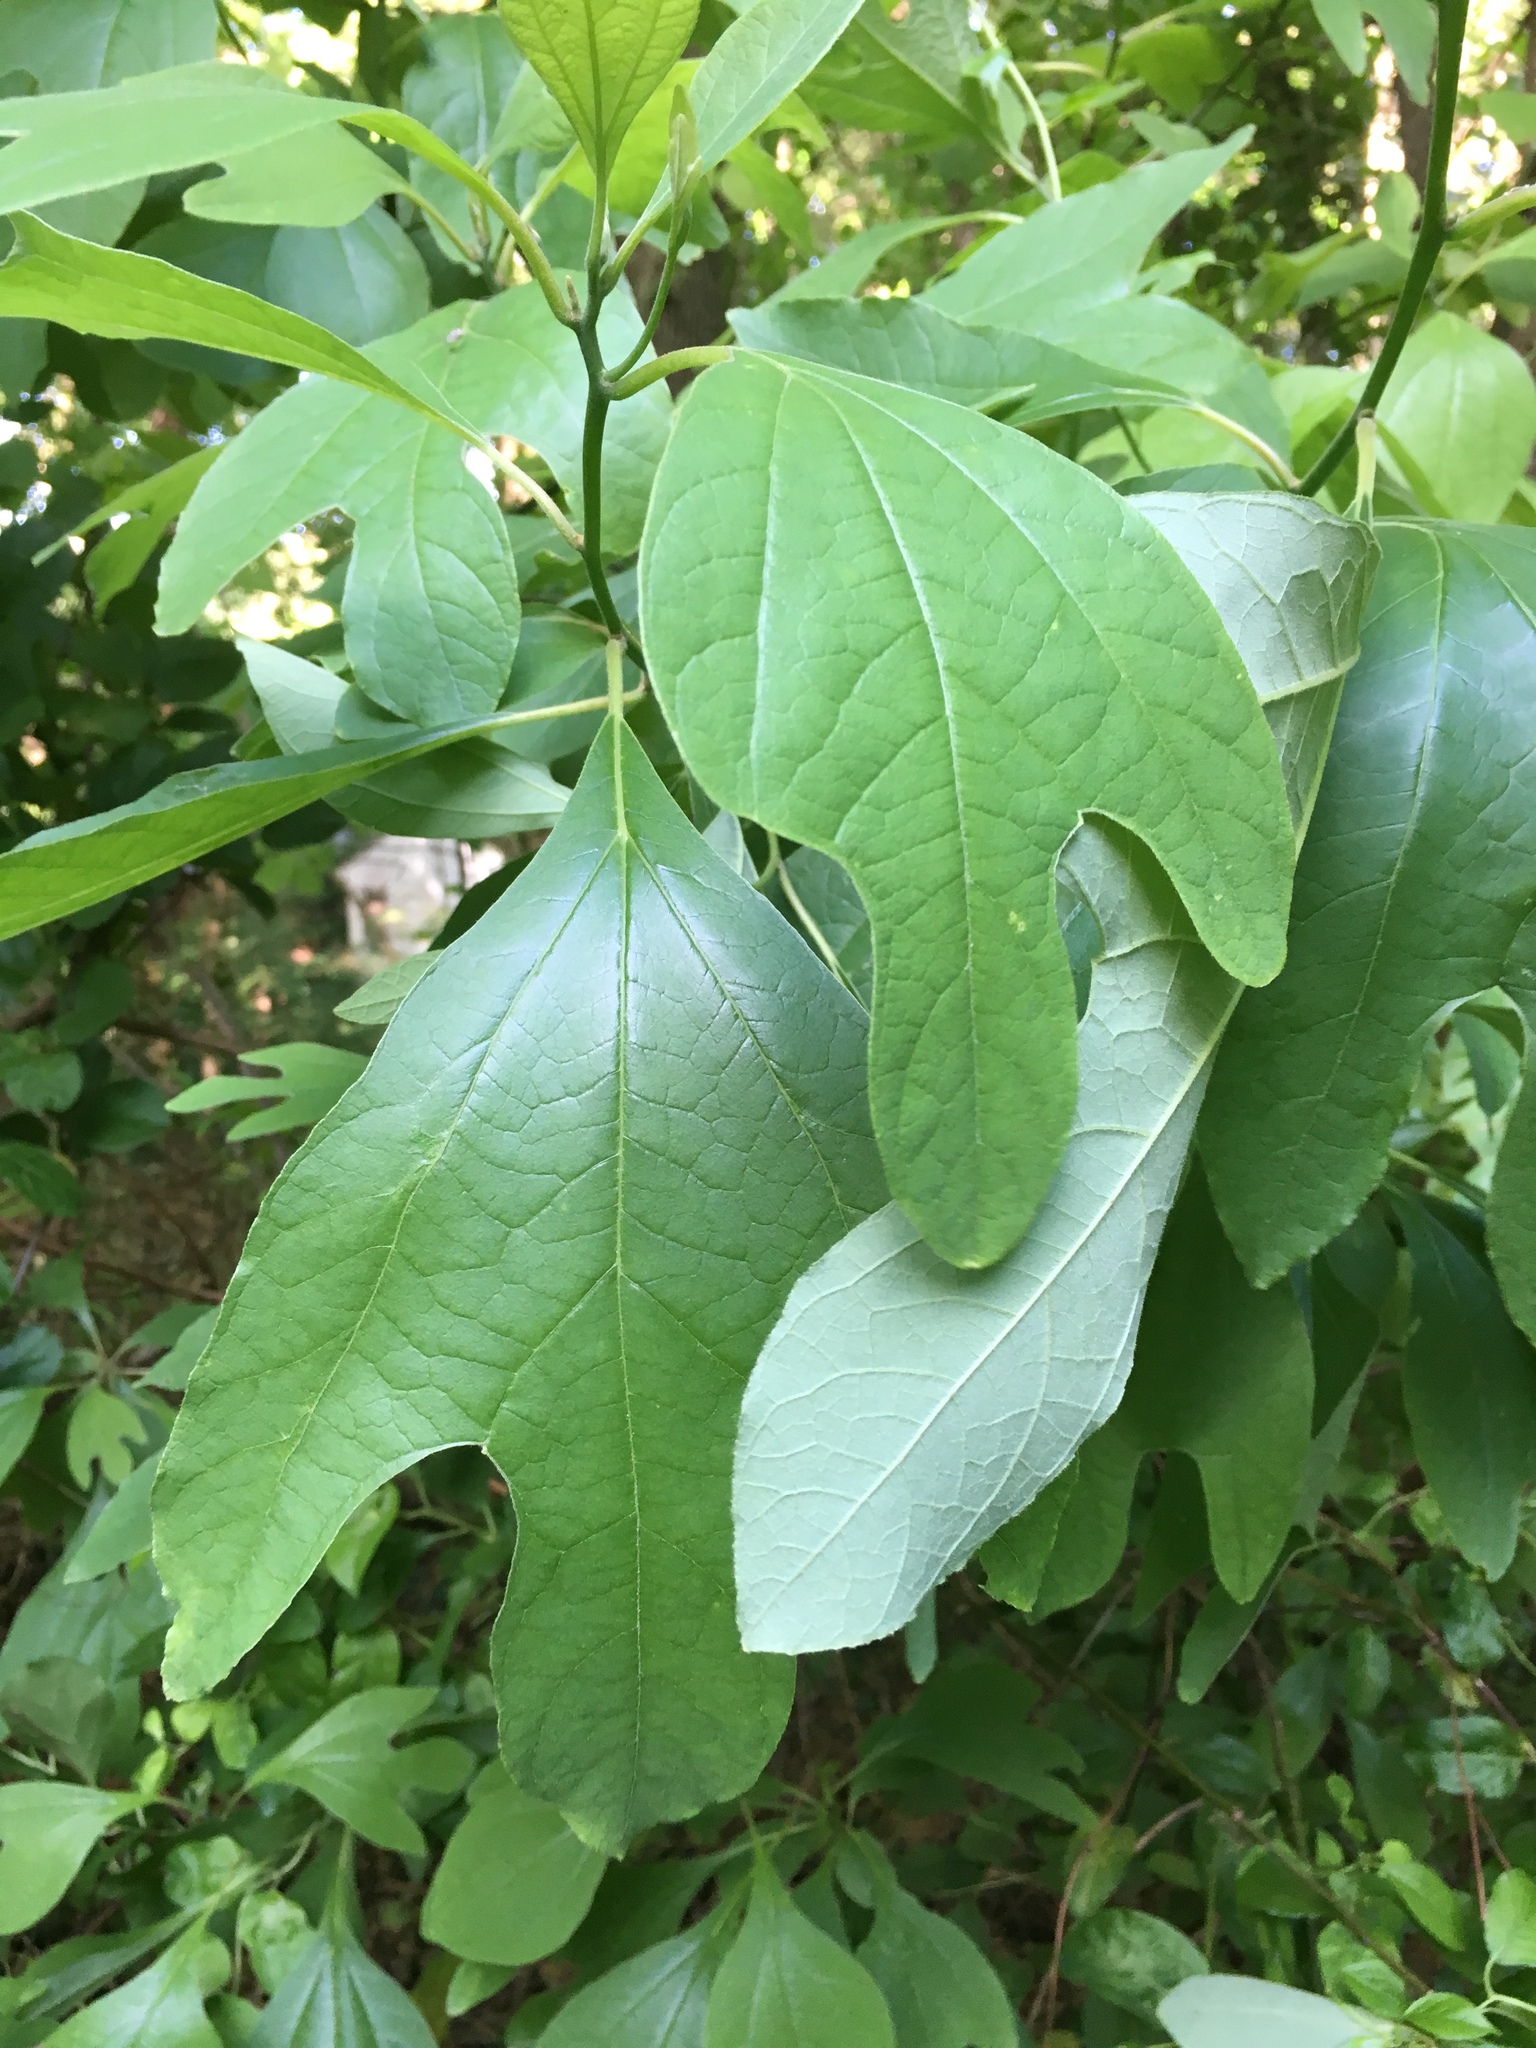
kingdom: Plantae
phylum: Tracheophyta
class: Magnoliopsida
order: Laurales
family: Lauraceae
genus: Sassafras
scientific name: Sassafras albidum
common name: Sassafras
